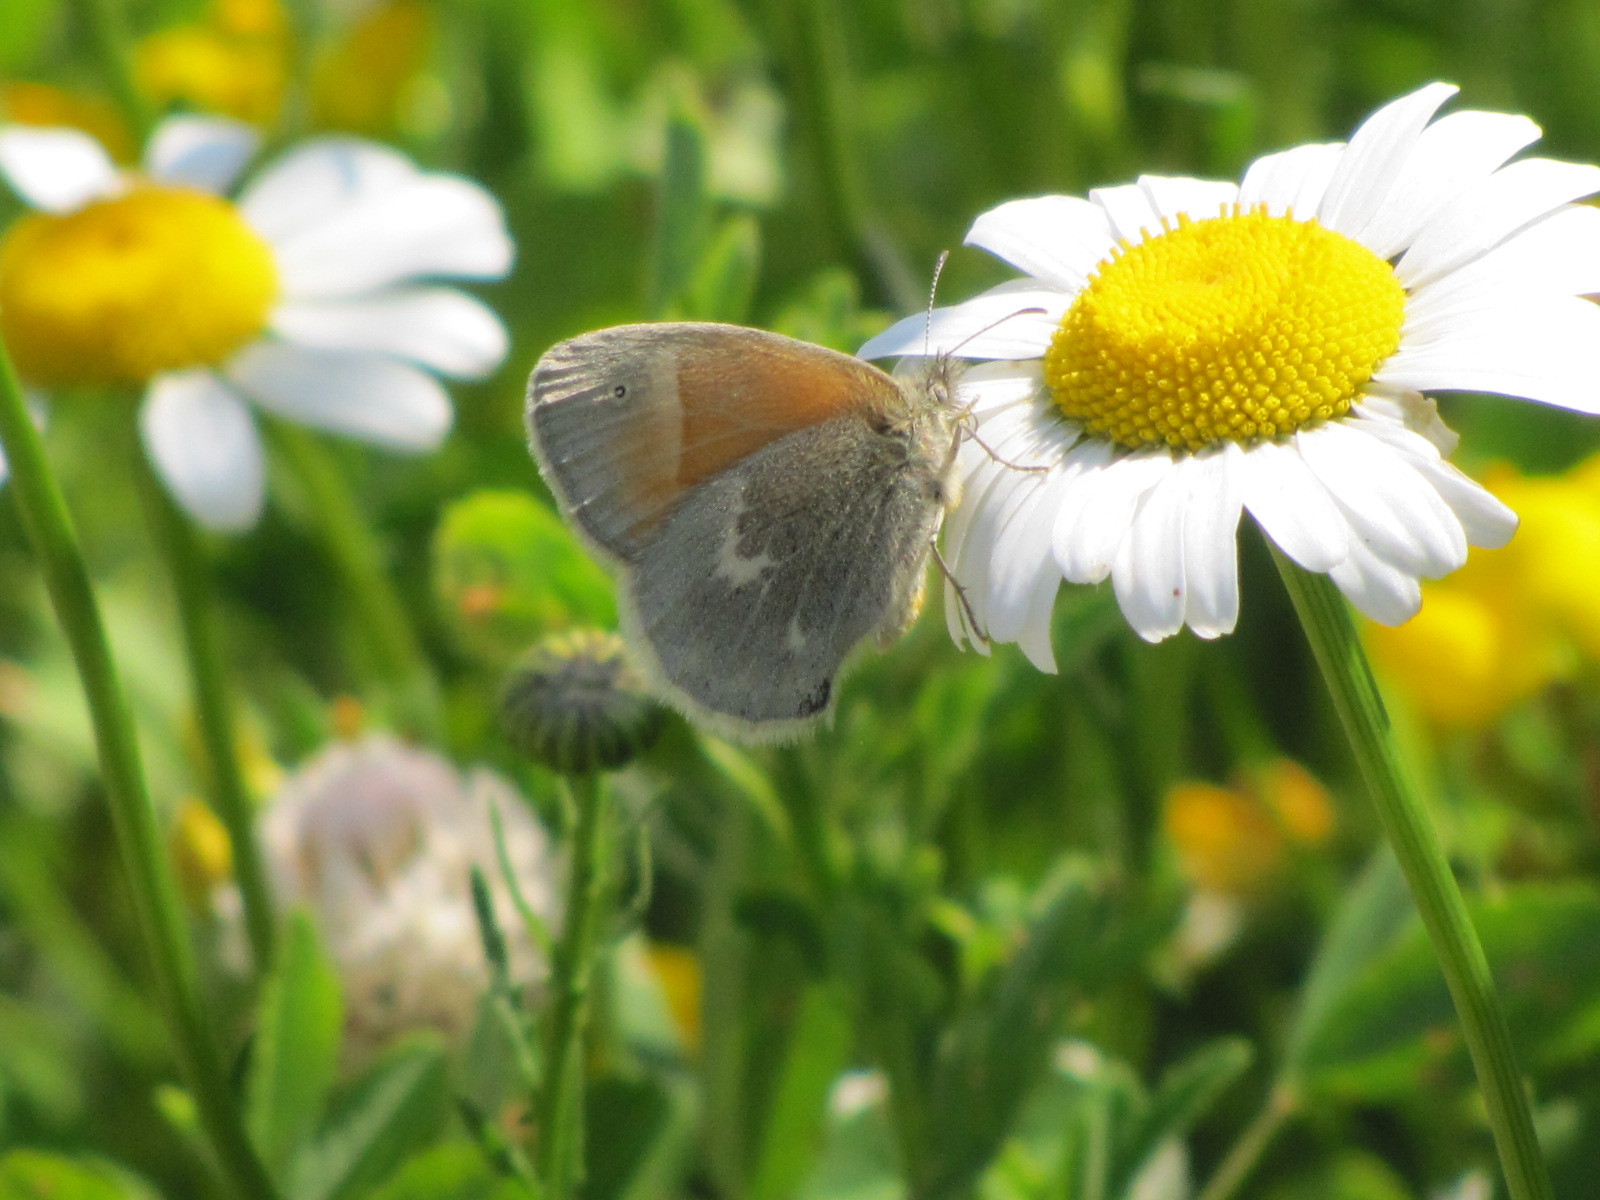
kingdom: Animalia
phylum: Arthropoda
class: Insecta
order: Lepidoptera
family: Nymphalidae
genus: Coenonympha
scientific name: Coenonympha california
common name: Common ringlet
